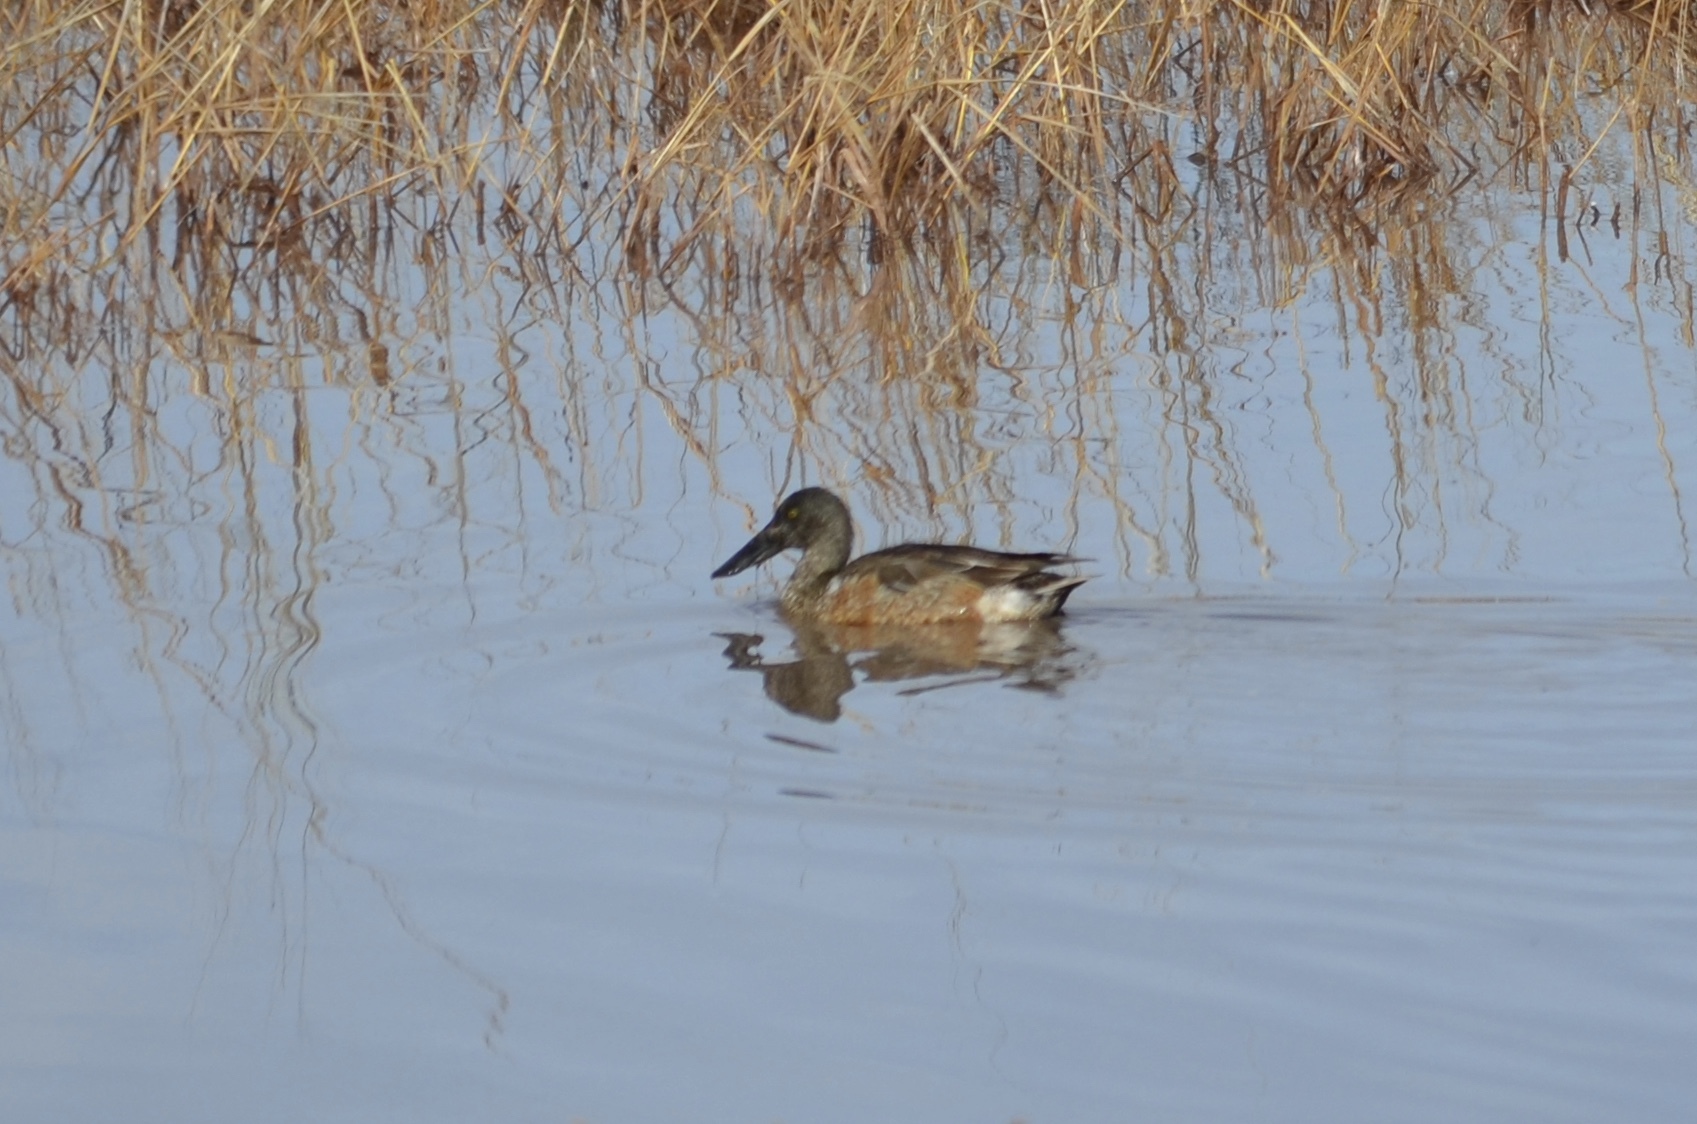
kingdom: Animalia
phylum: Chordata
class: Aves
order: Anseriformes
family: Anatidae
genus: Spatula
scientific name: Spatula clypeata
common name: Northern shoveler
